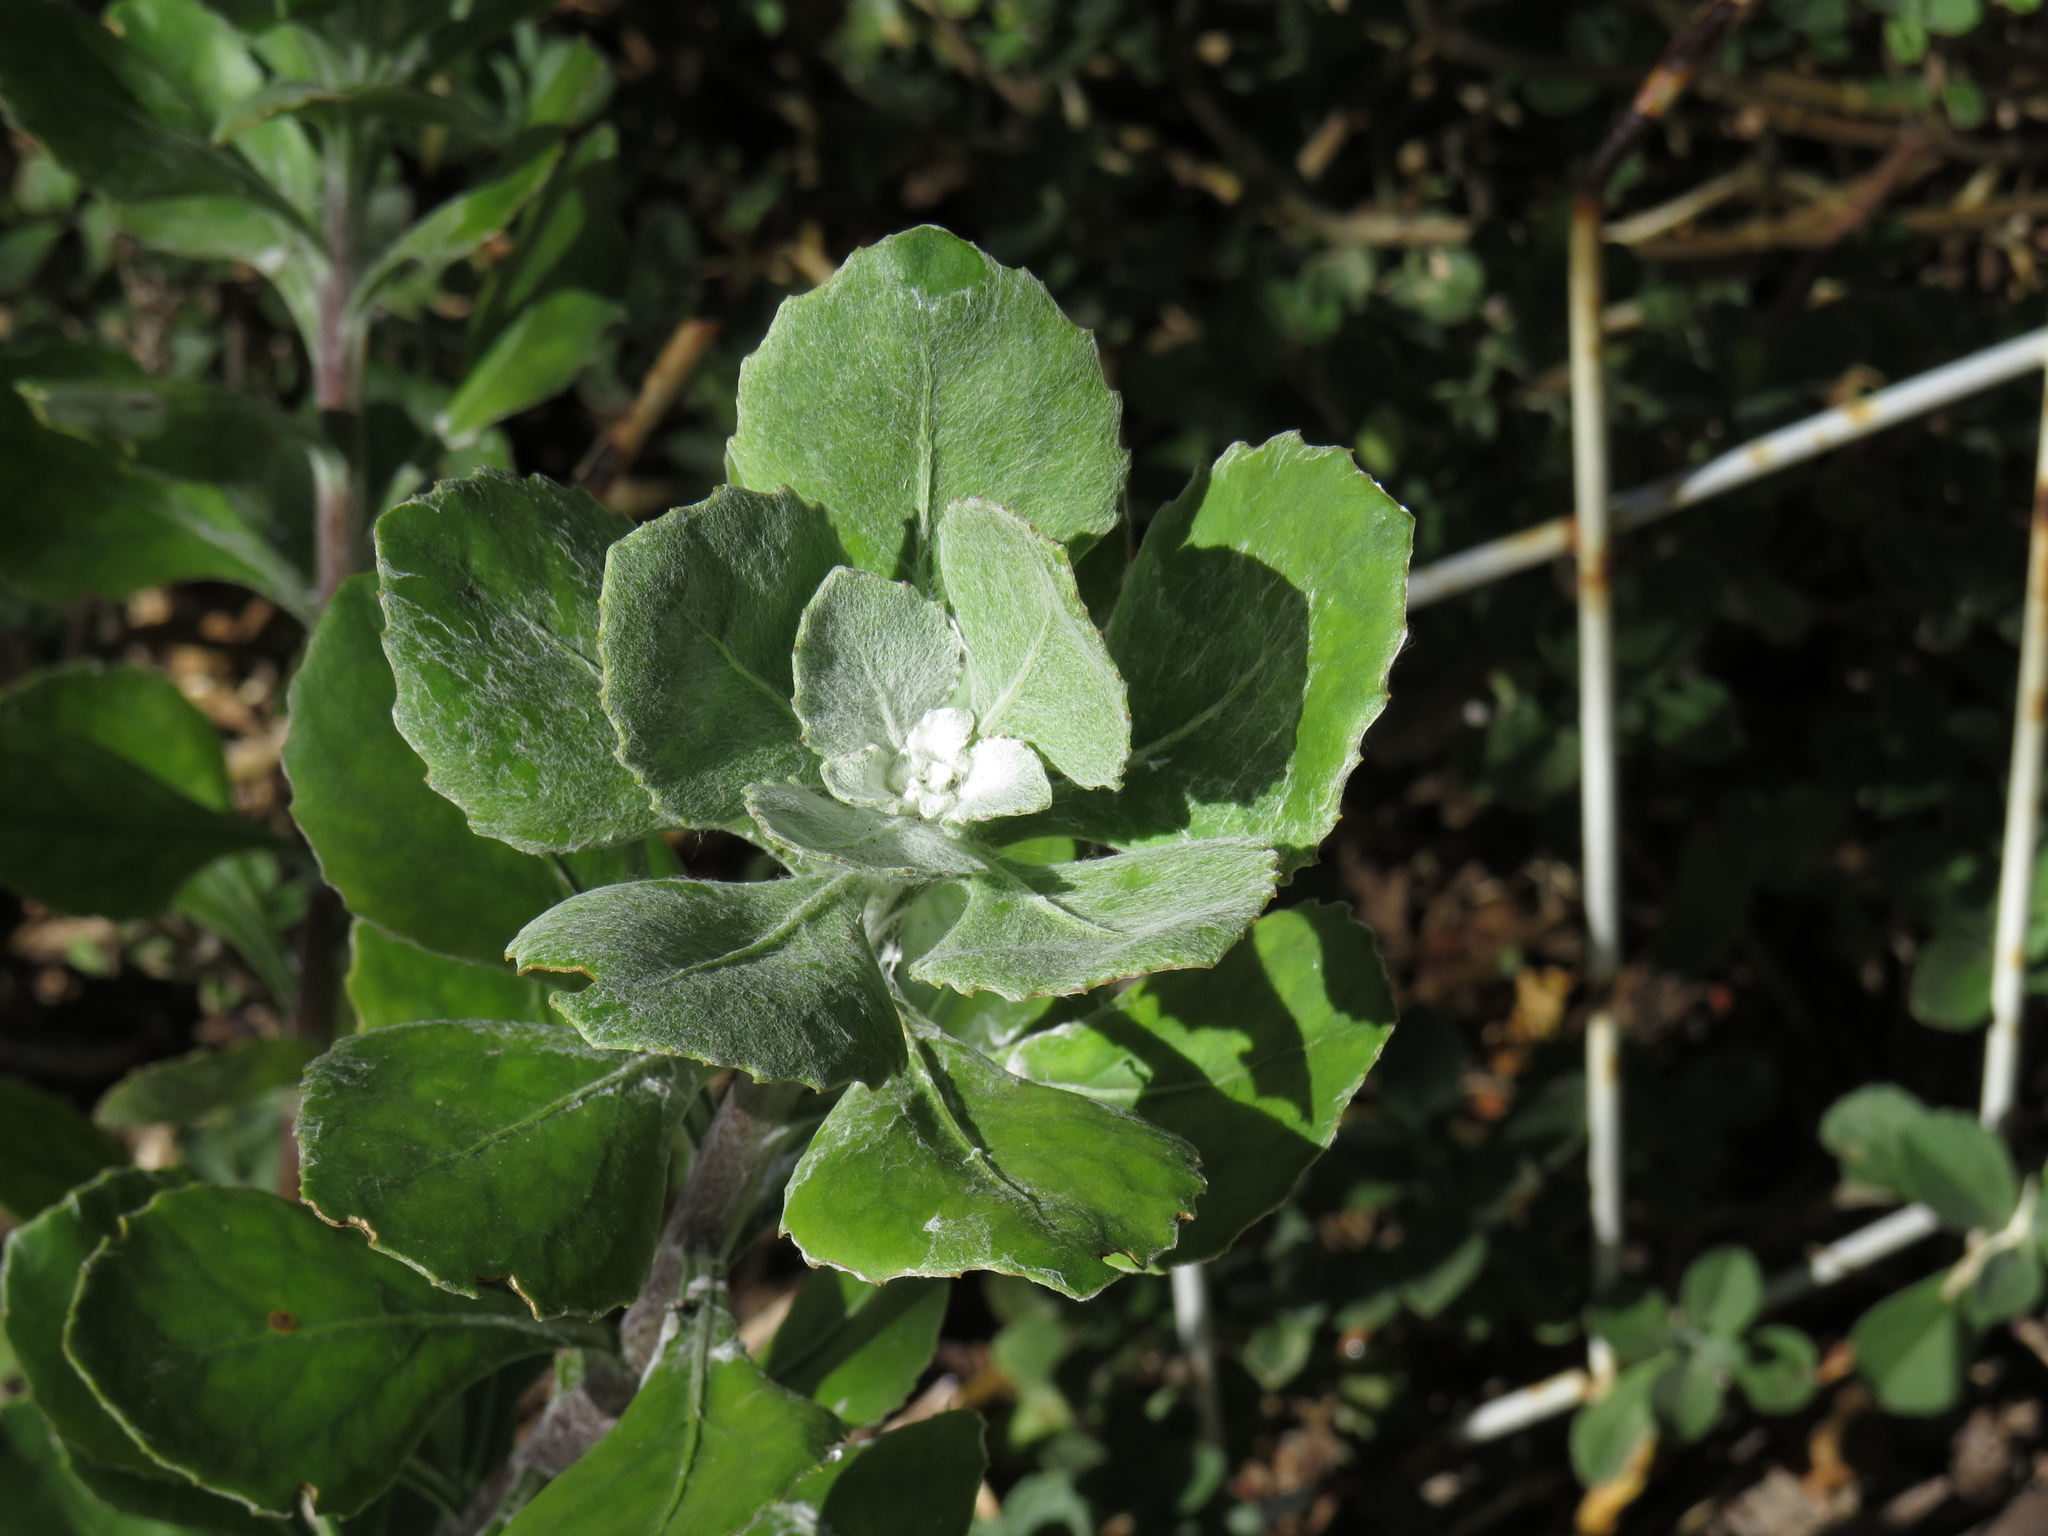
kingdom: Plantae
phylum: Tracheophyta
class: Magnoliopsida
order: Asterales
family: Asteraceae
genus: Osteospermum
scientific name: Osteospermum moniliferum
